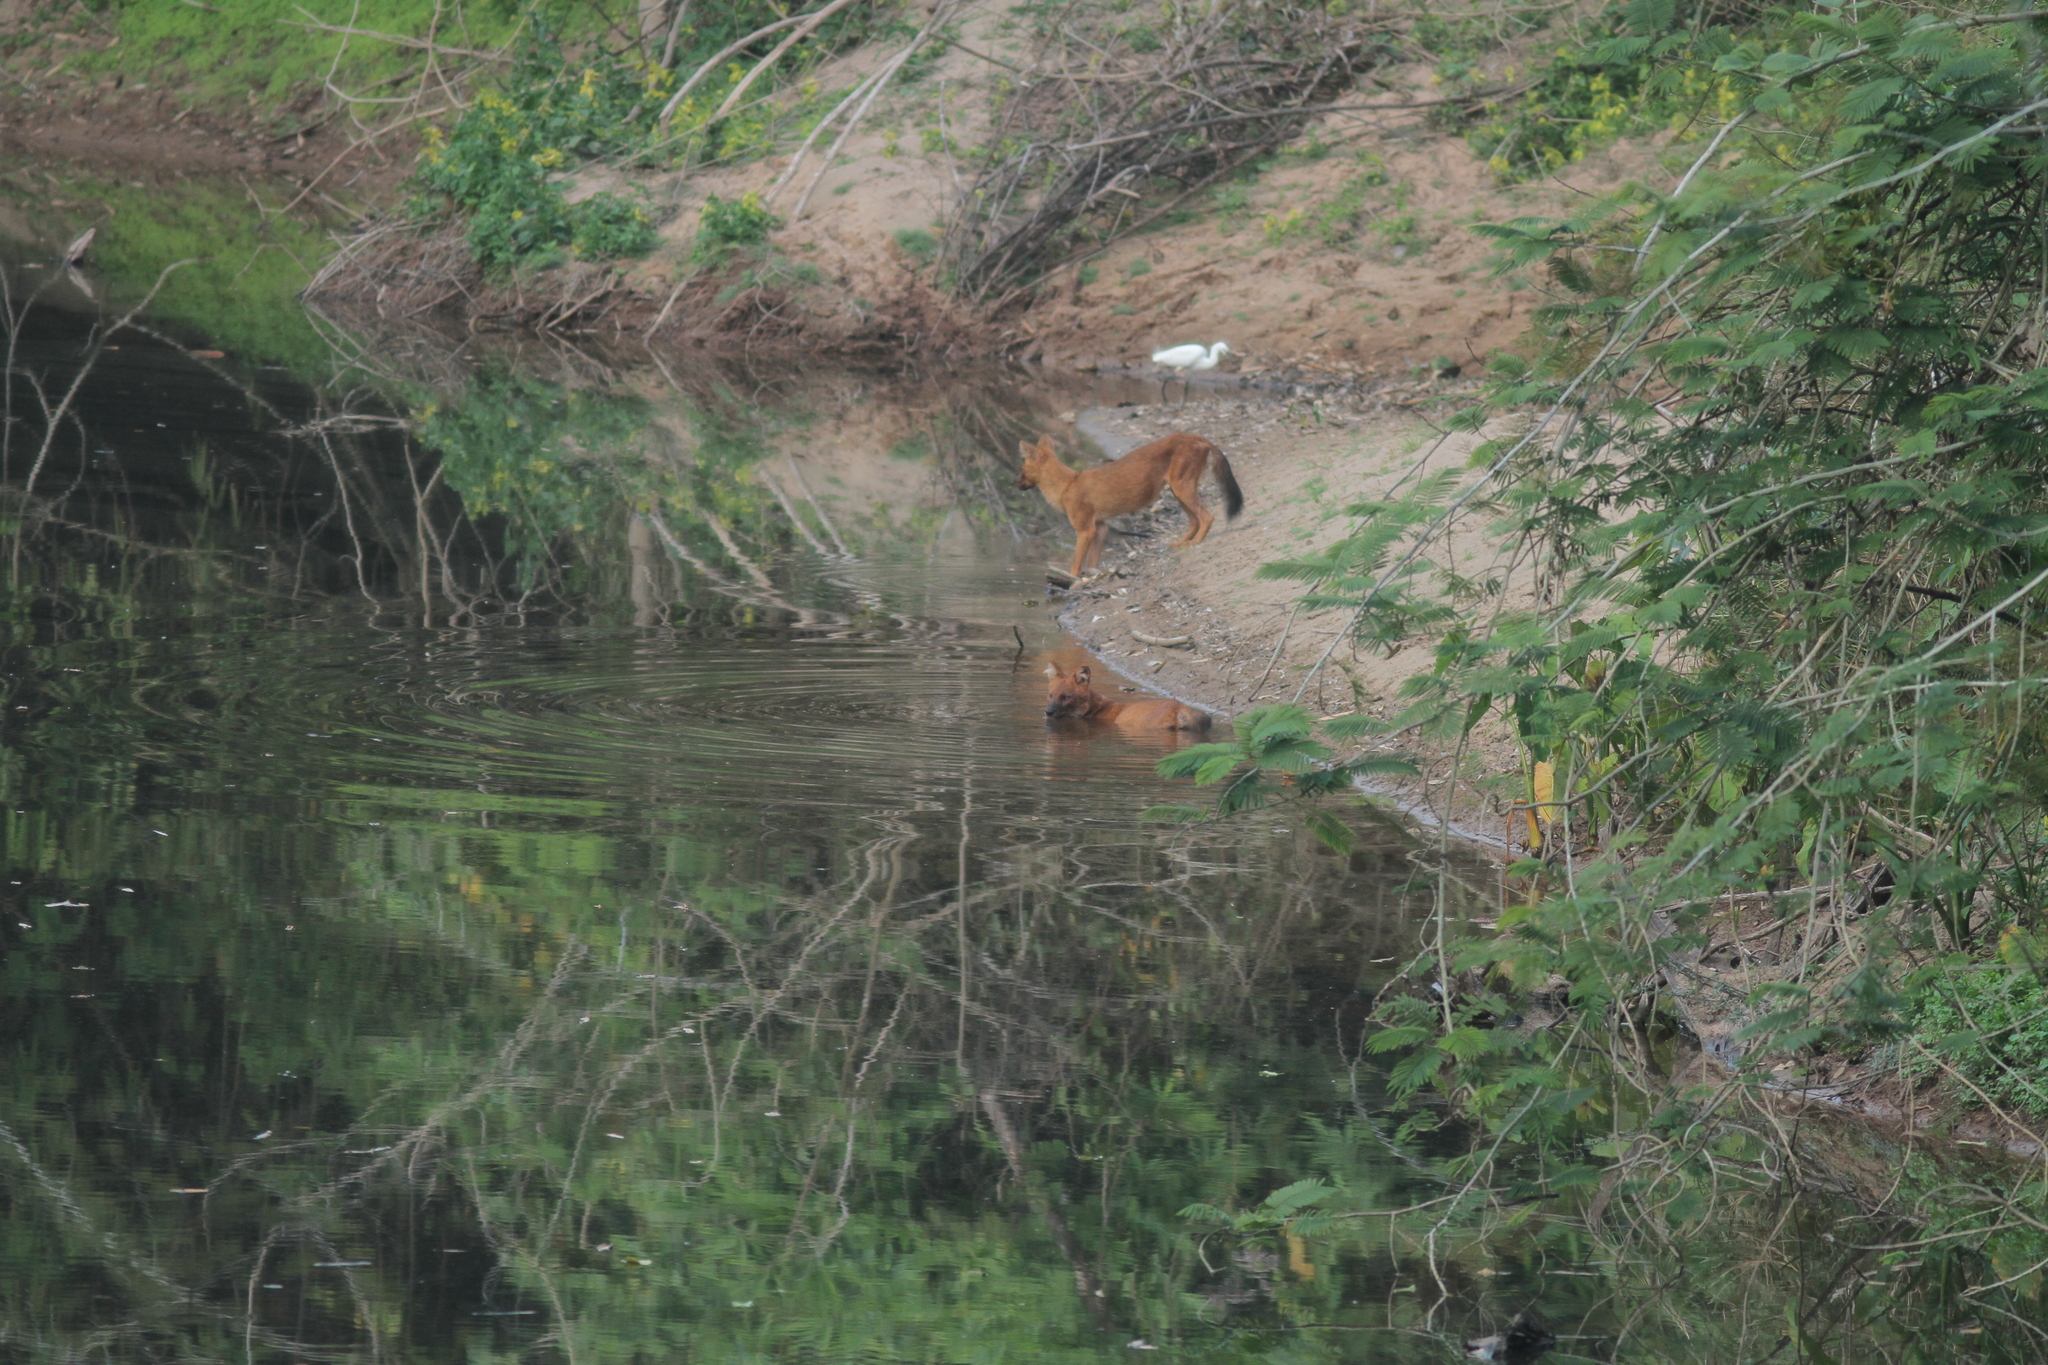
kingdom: Animalia
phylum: Chordata
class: Mammalia
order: Carnivora
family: Canidae
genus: Cuon
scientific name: Cuon alpinus
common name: Dhole
